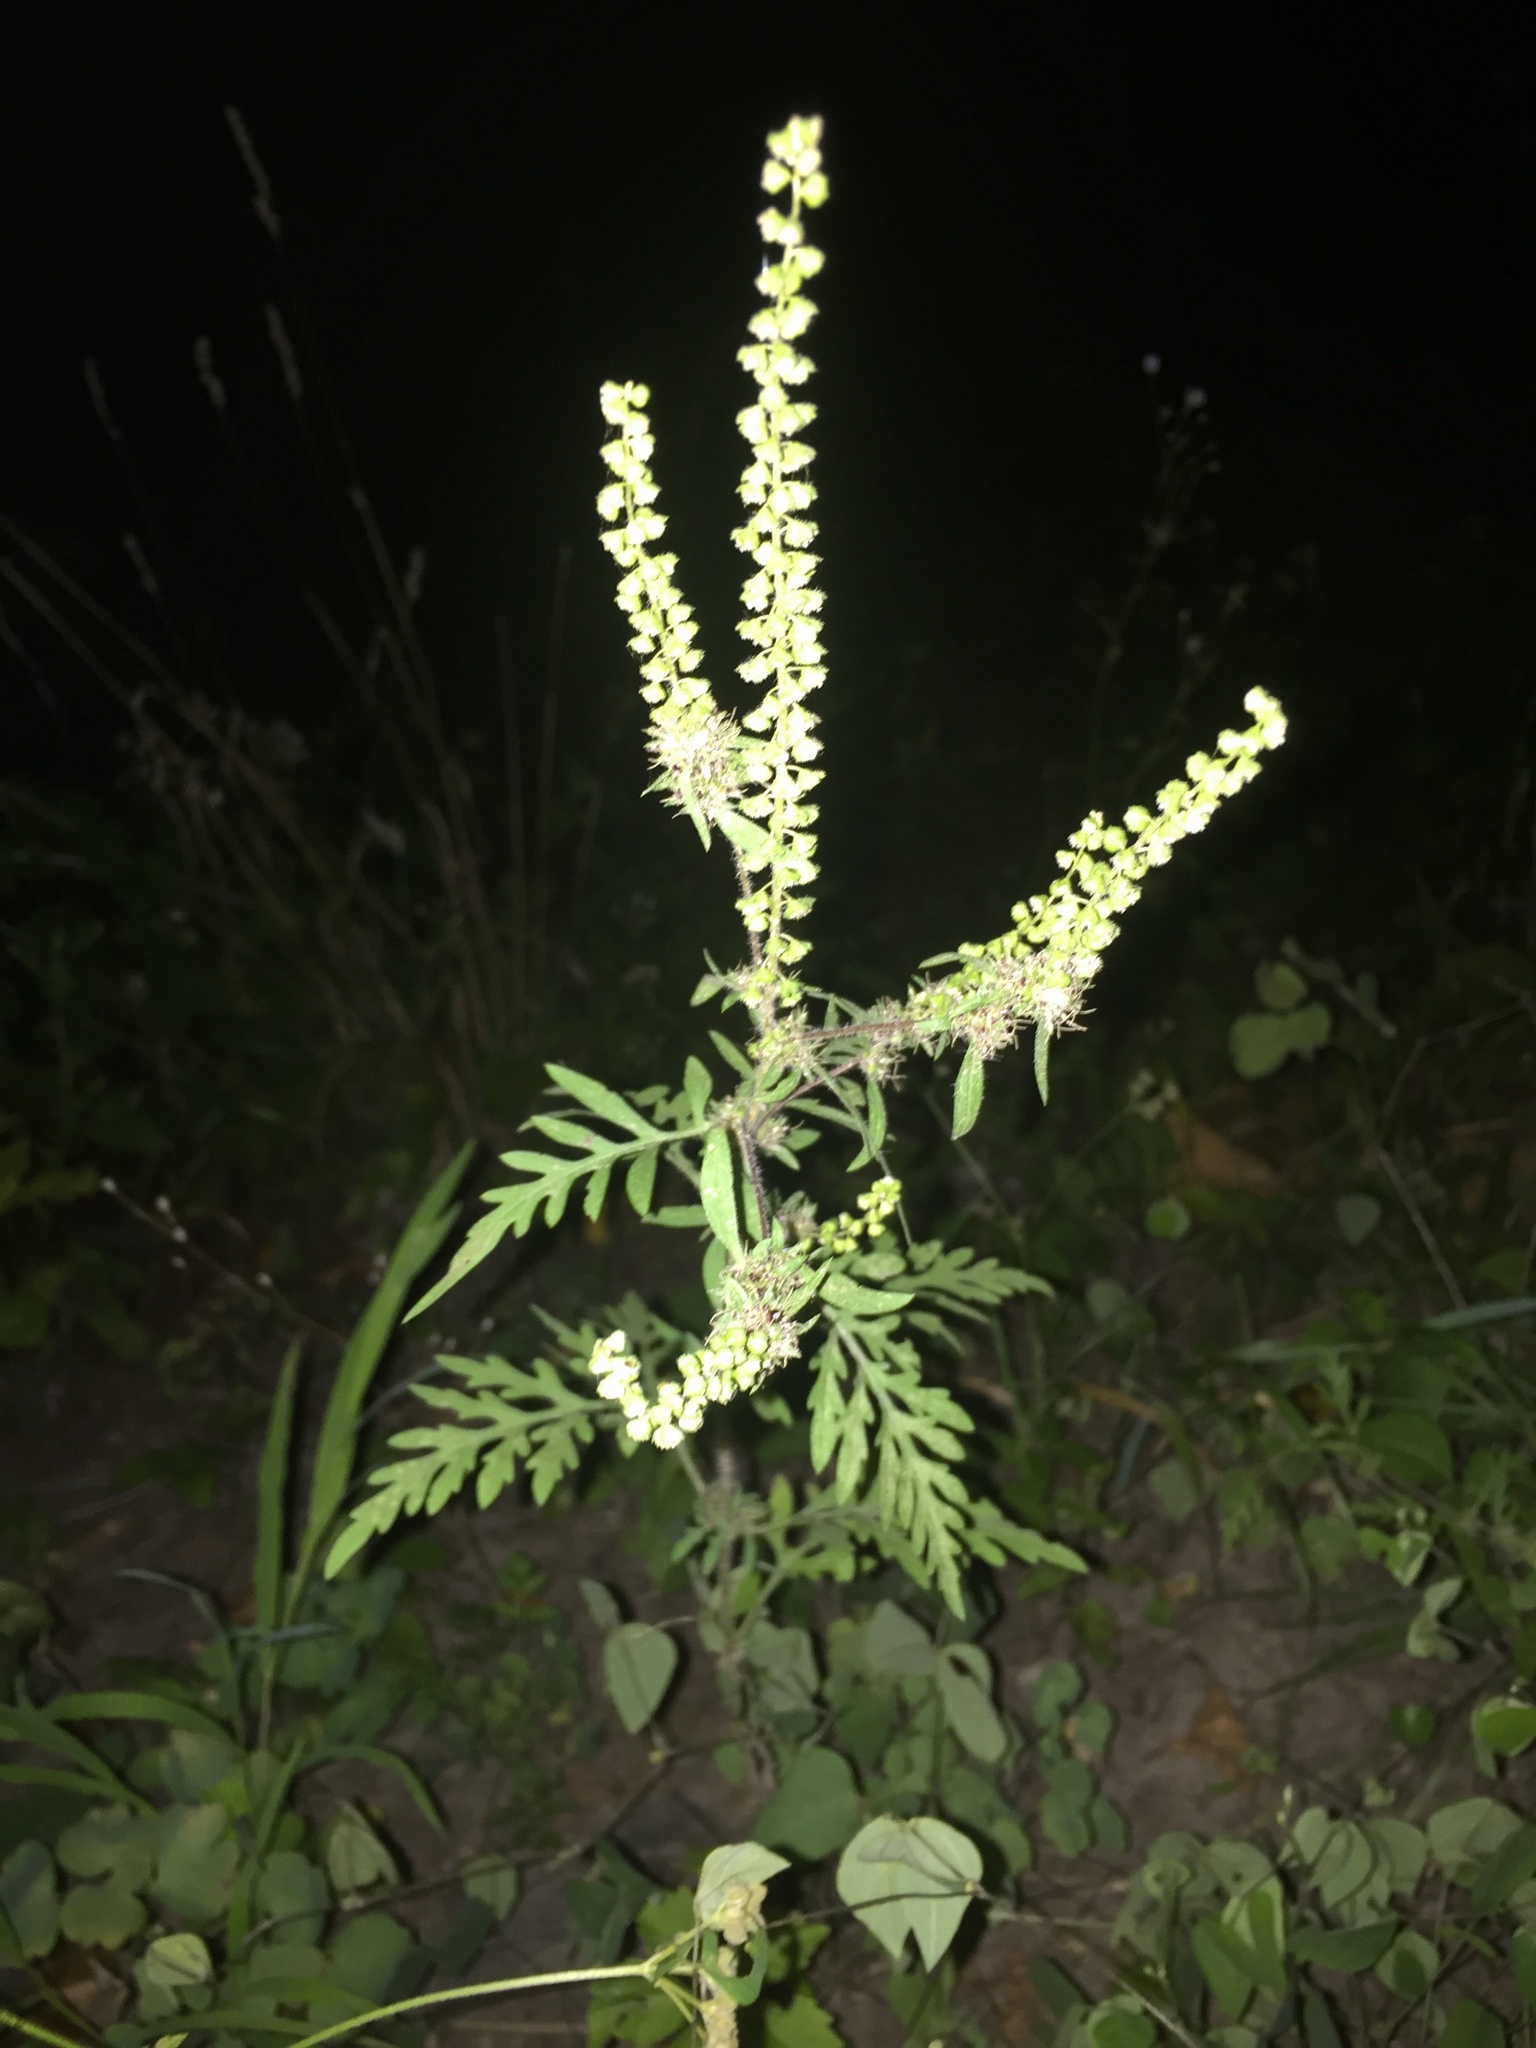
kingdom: Plantae
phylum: Tracheophyta
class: Magnoliopsida
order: Asterales
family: Asteraceae
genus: Ambrosia
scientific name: Ambrosia artemisiifolia
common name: Annual ragweed
